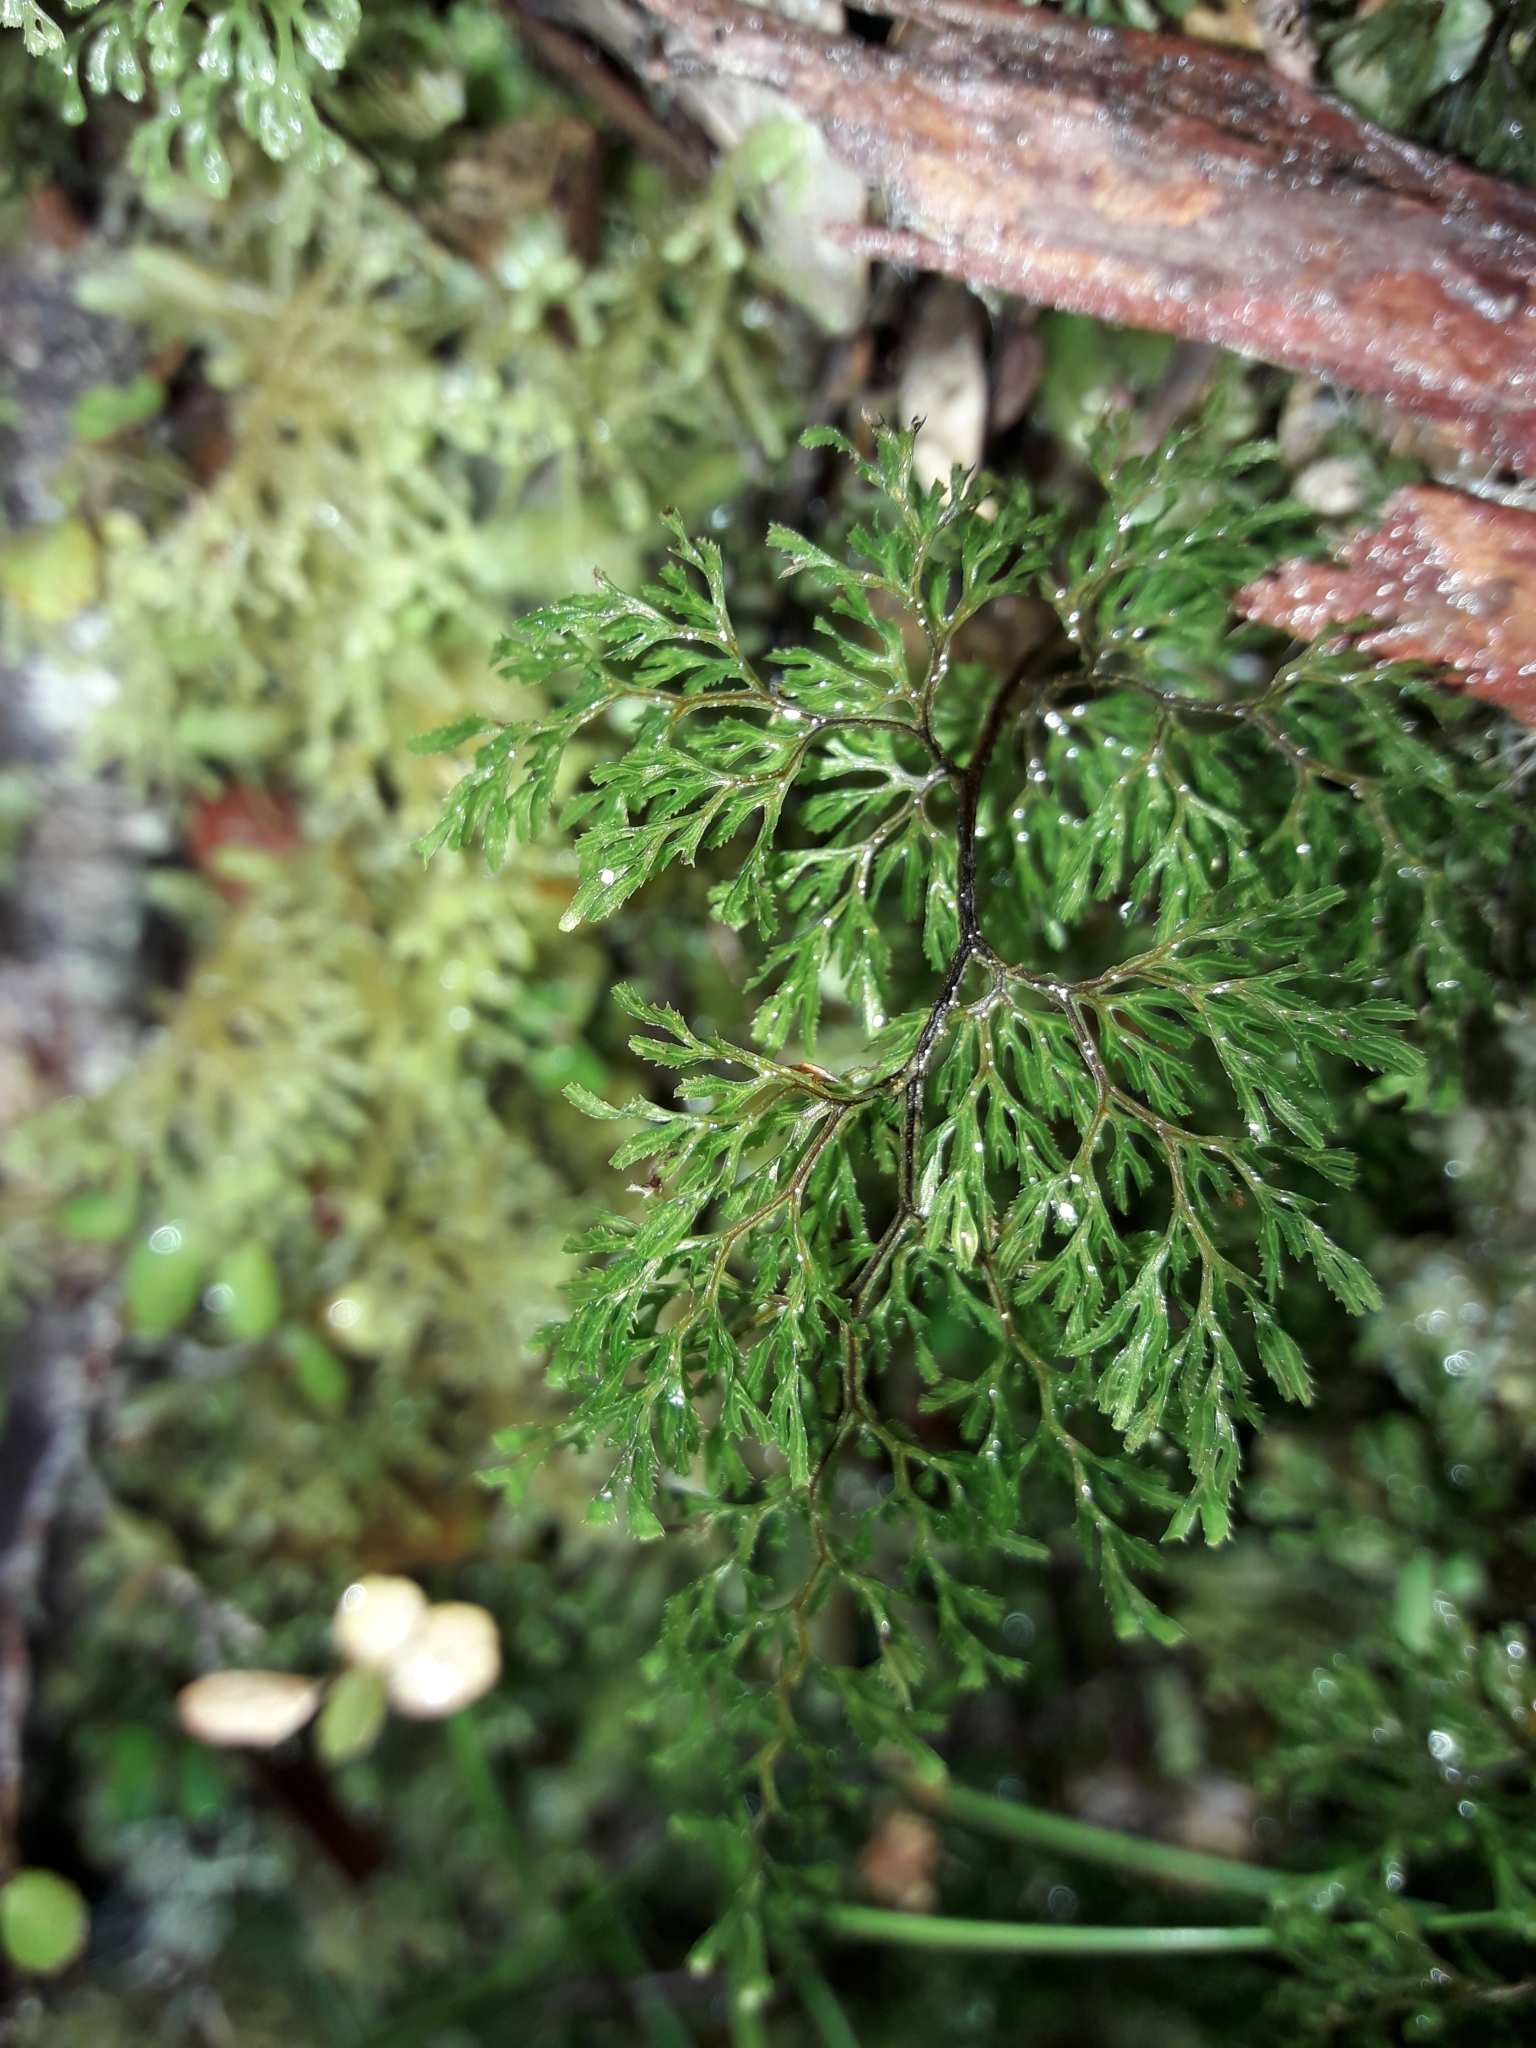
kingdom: Plantae
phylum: Tracheophyta
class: Polypodiopsida
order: Hymenophyllales
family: Hymenophyllaceae
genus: Hymenophyllum
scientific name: Hymenophyllum multifidum
